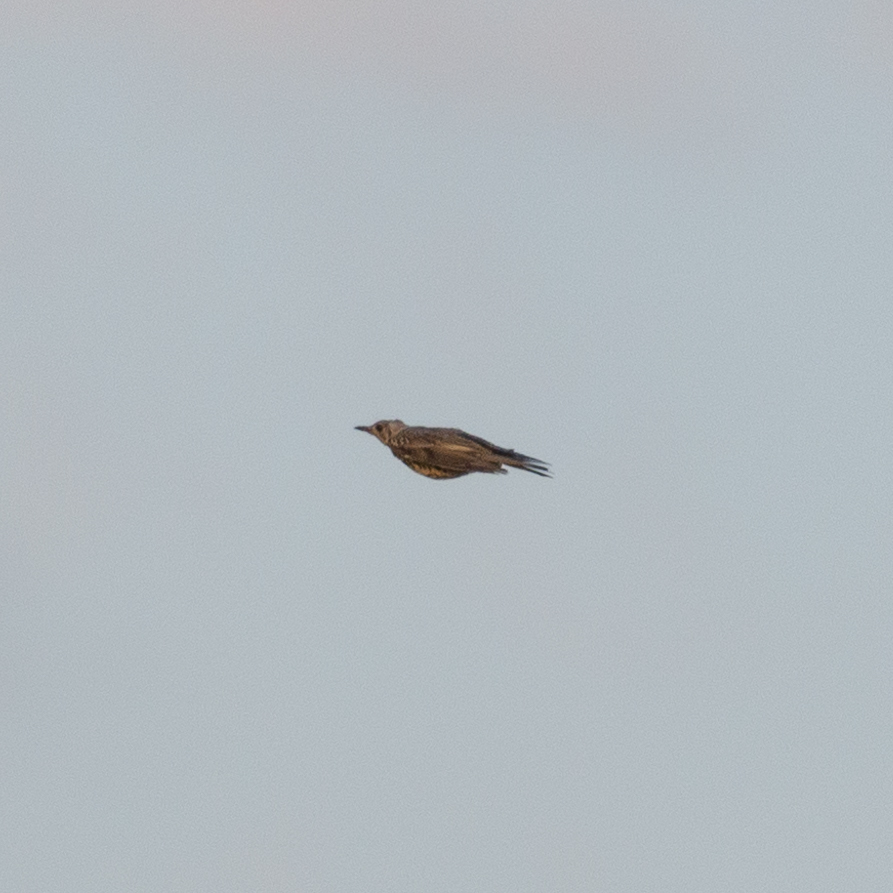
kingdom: Animalia
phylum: Chordata
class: Aves
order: Passeriformes
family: Turdidae
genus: Turdus
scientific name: Turdus viscivorus
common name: Mistle thrush
